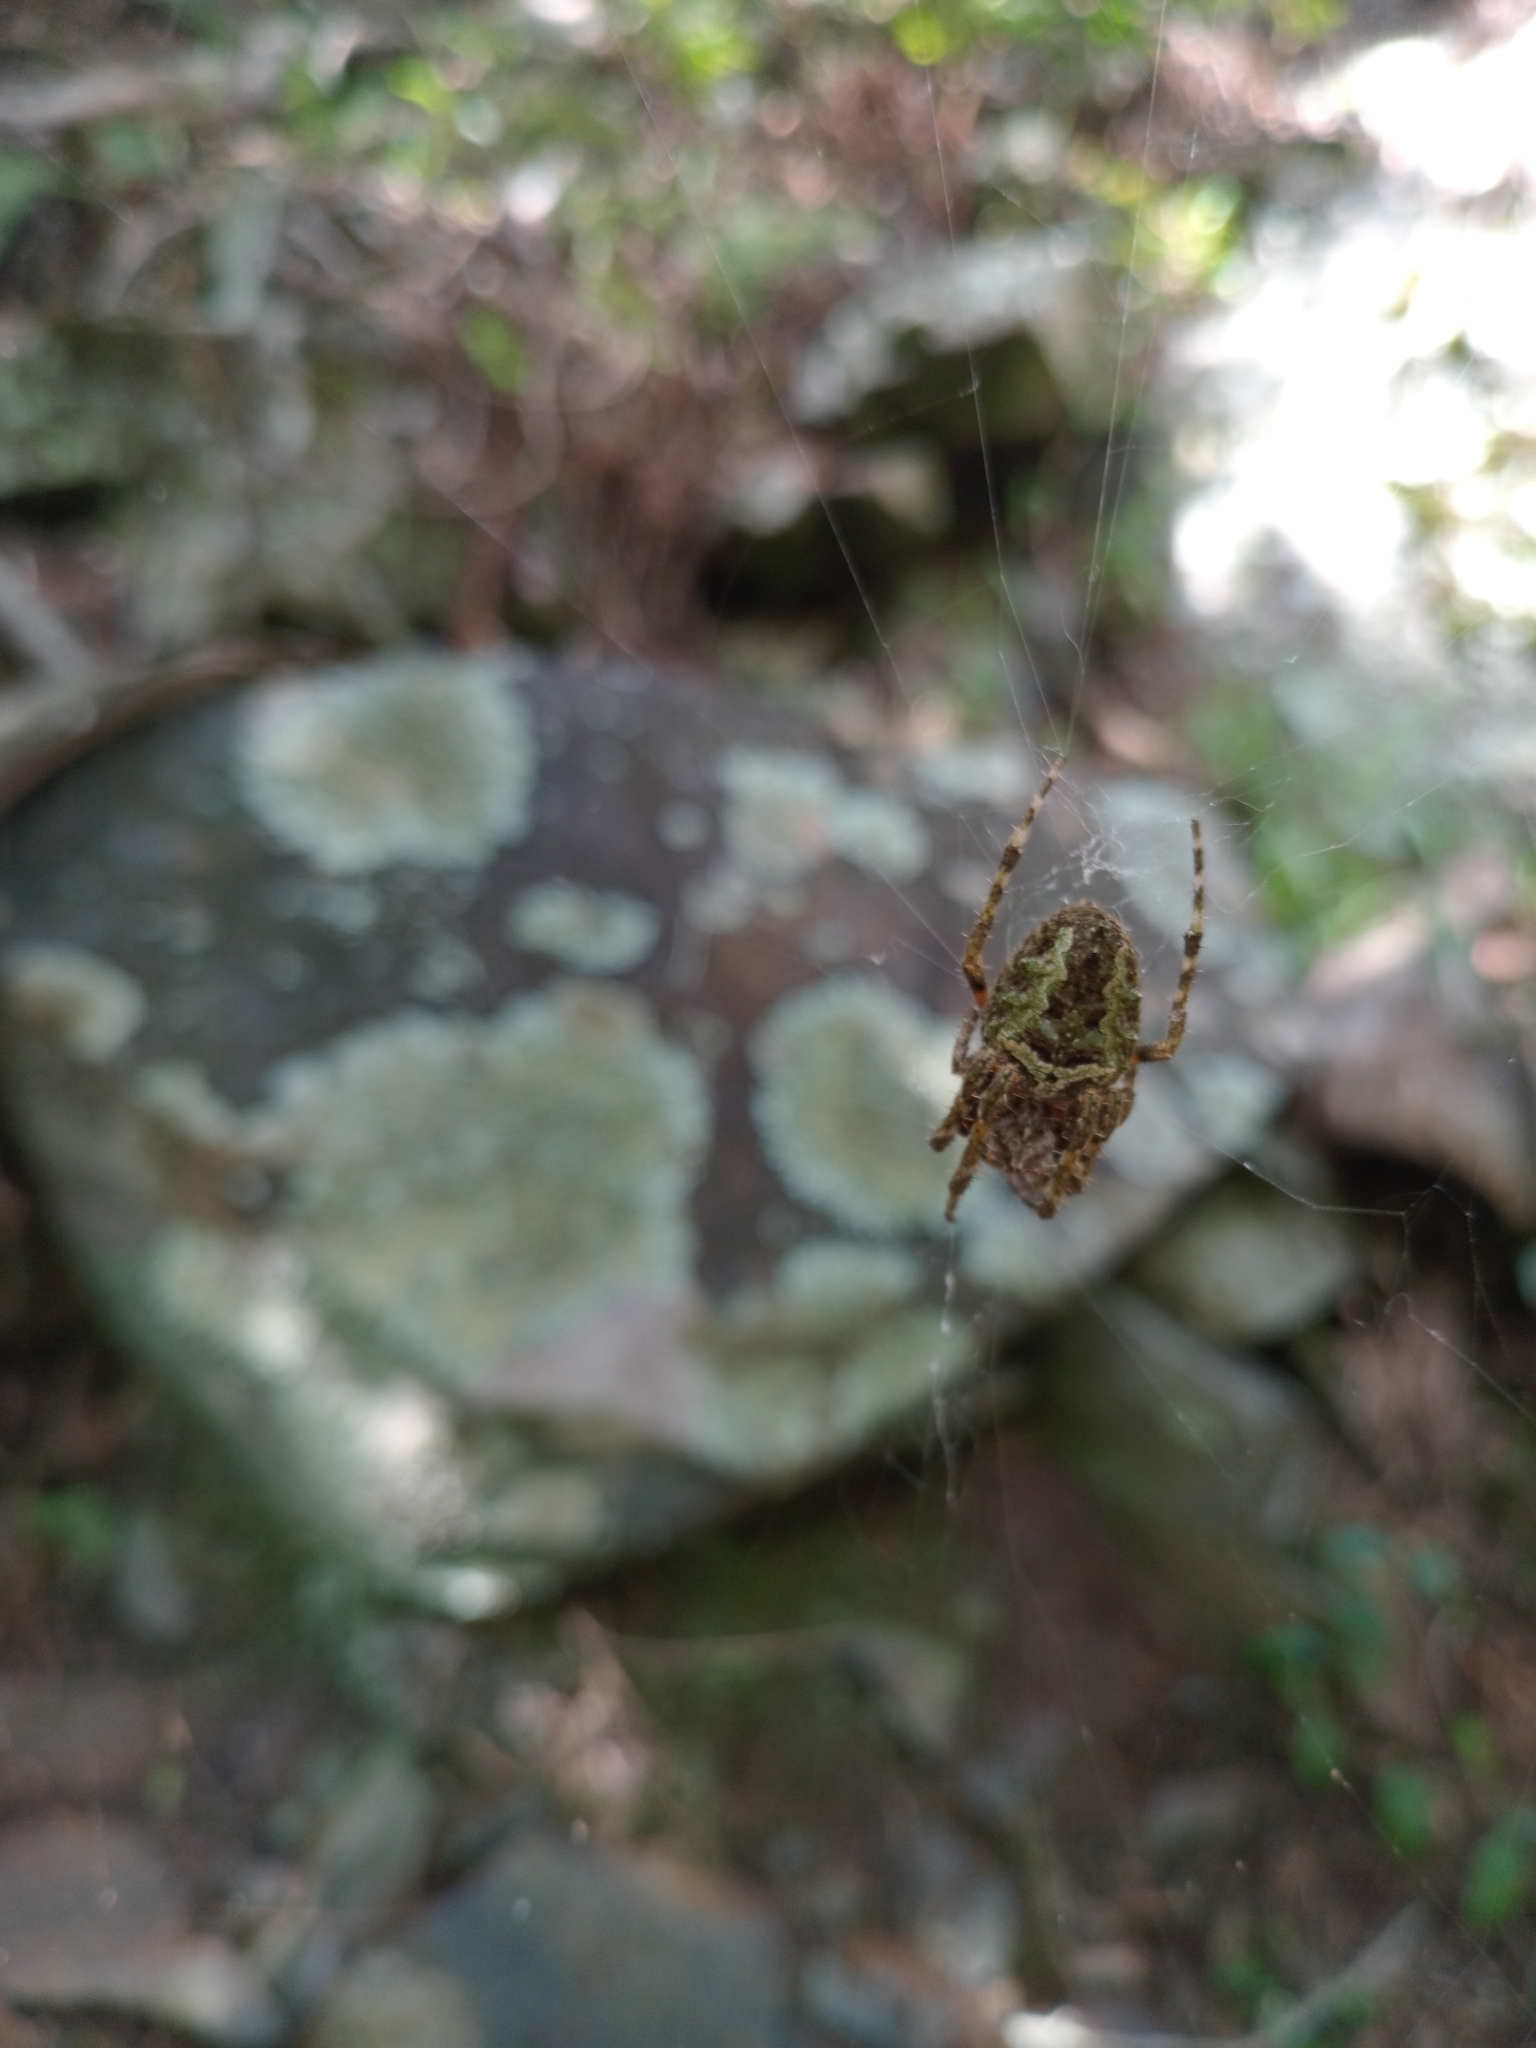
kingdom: Animalia
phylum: Arthropoda
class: Arachnida
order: Araneae
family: Araneidae
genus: Parawixia
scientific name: Parawixia audax
